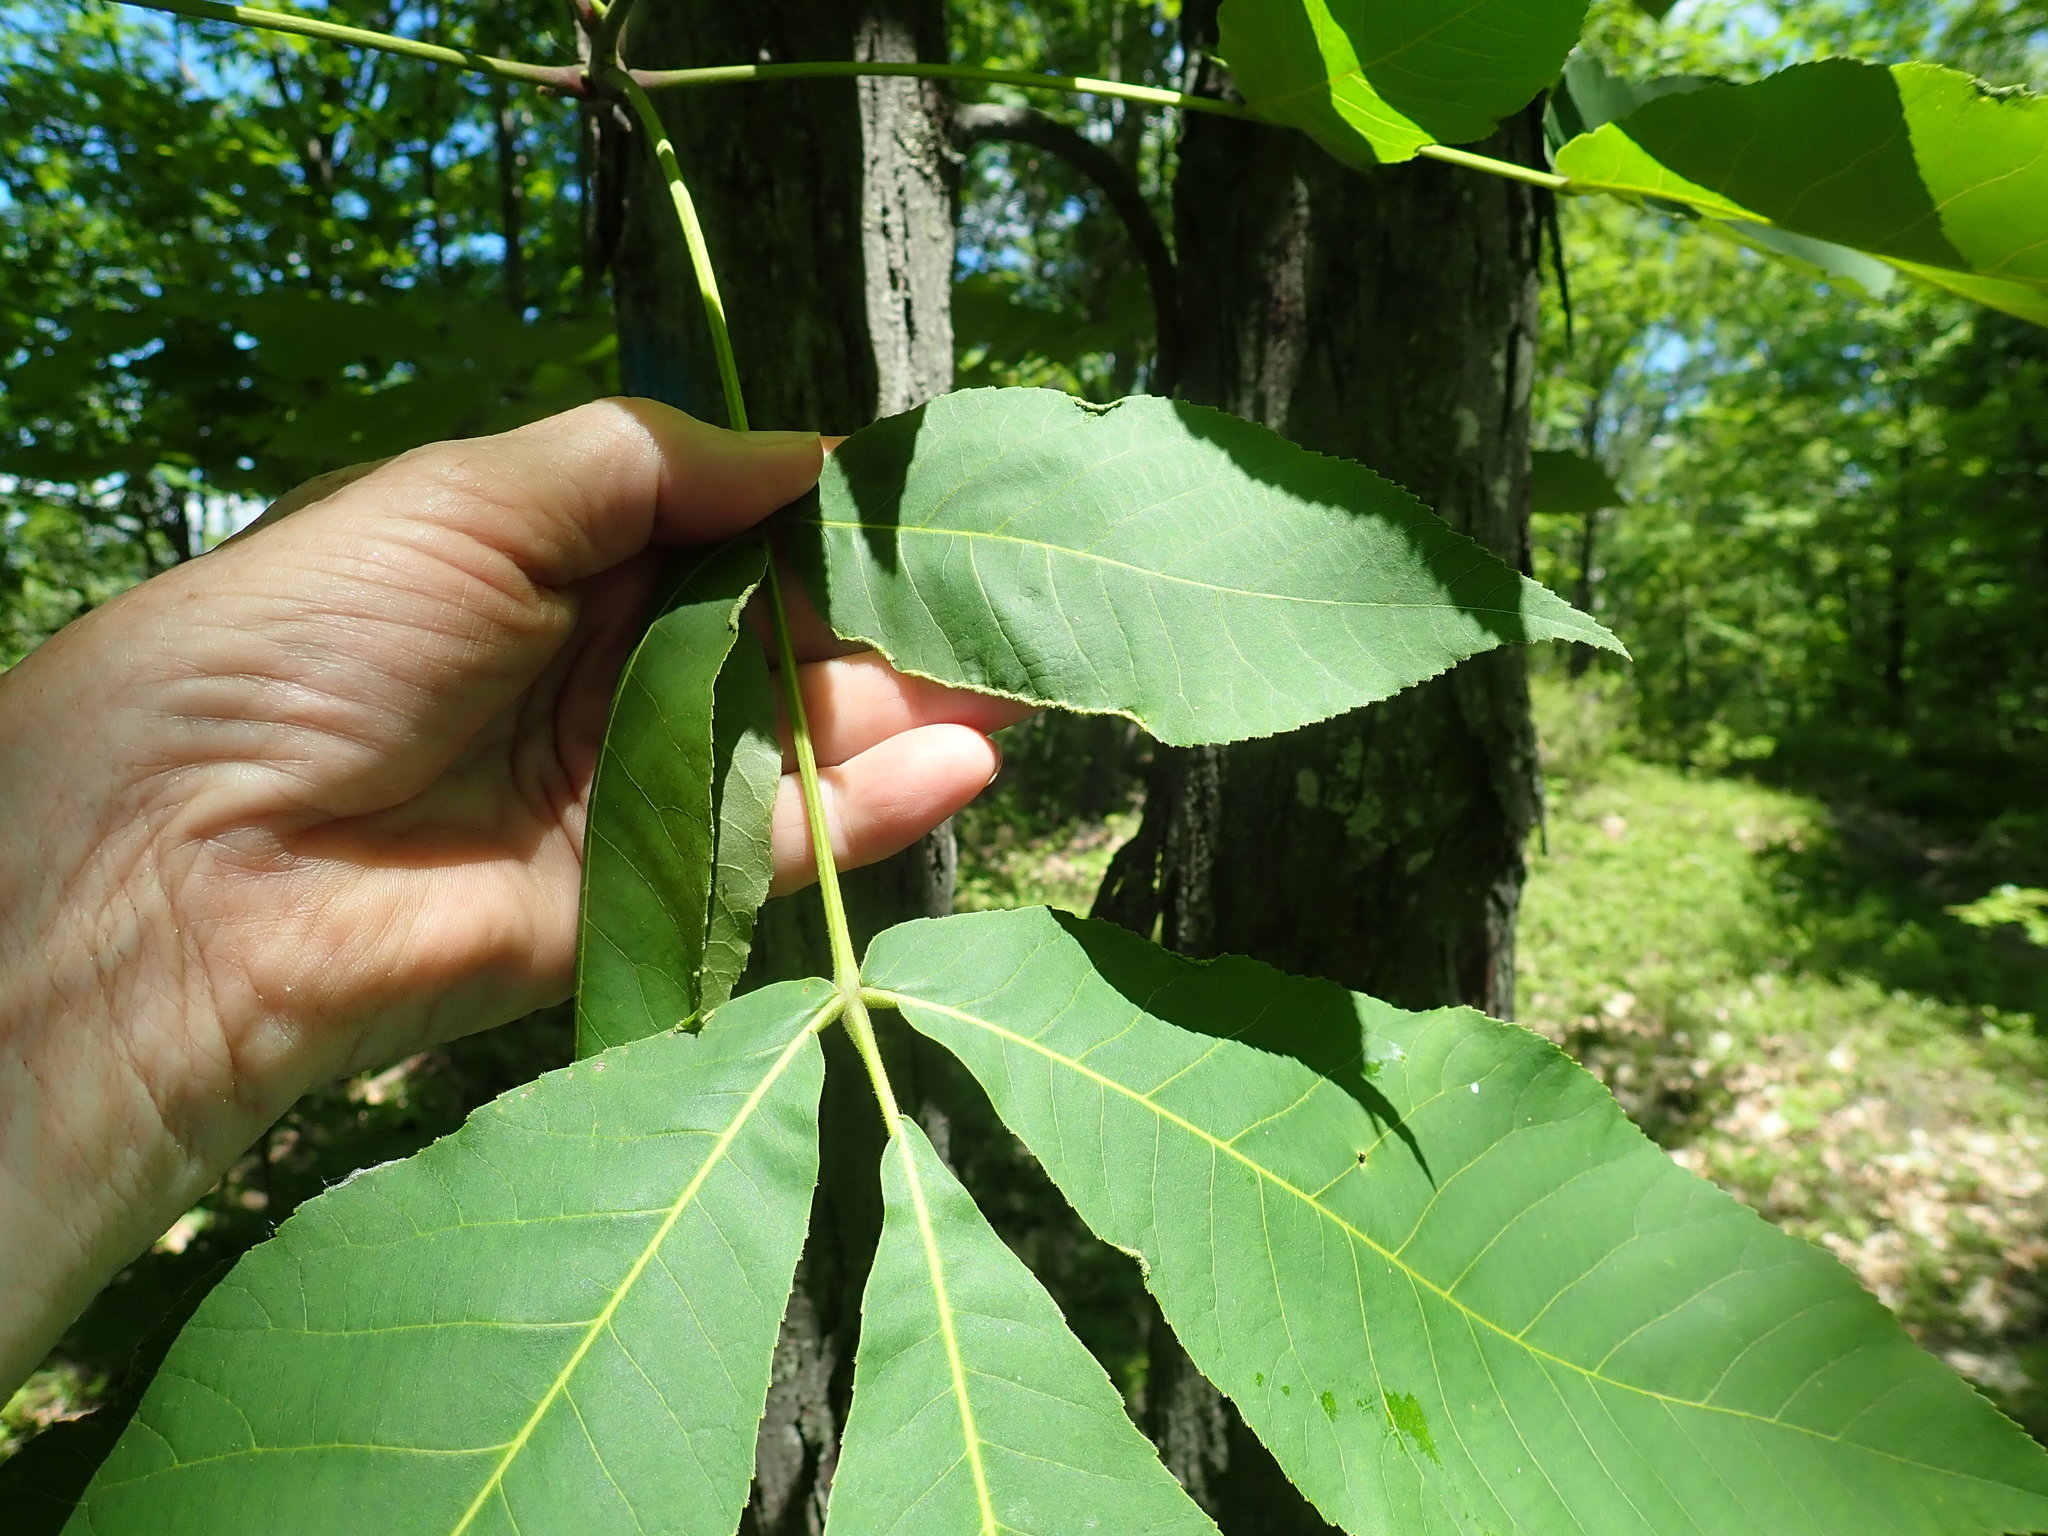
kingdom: Animalia
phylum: Arthropoda
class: Arachnida
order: Trombidiformes
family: Eriophyidae
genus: Aceria
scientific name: Aceria carlinae
